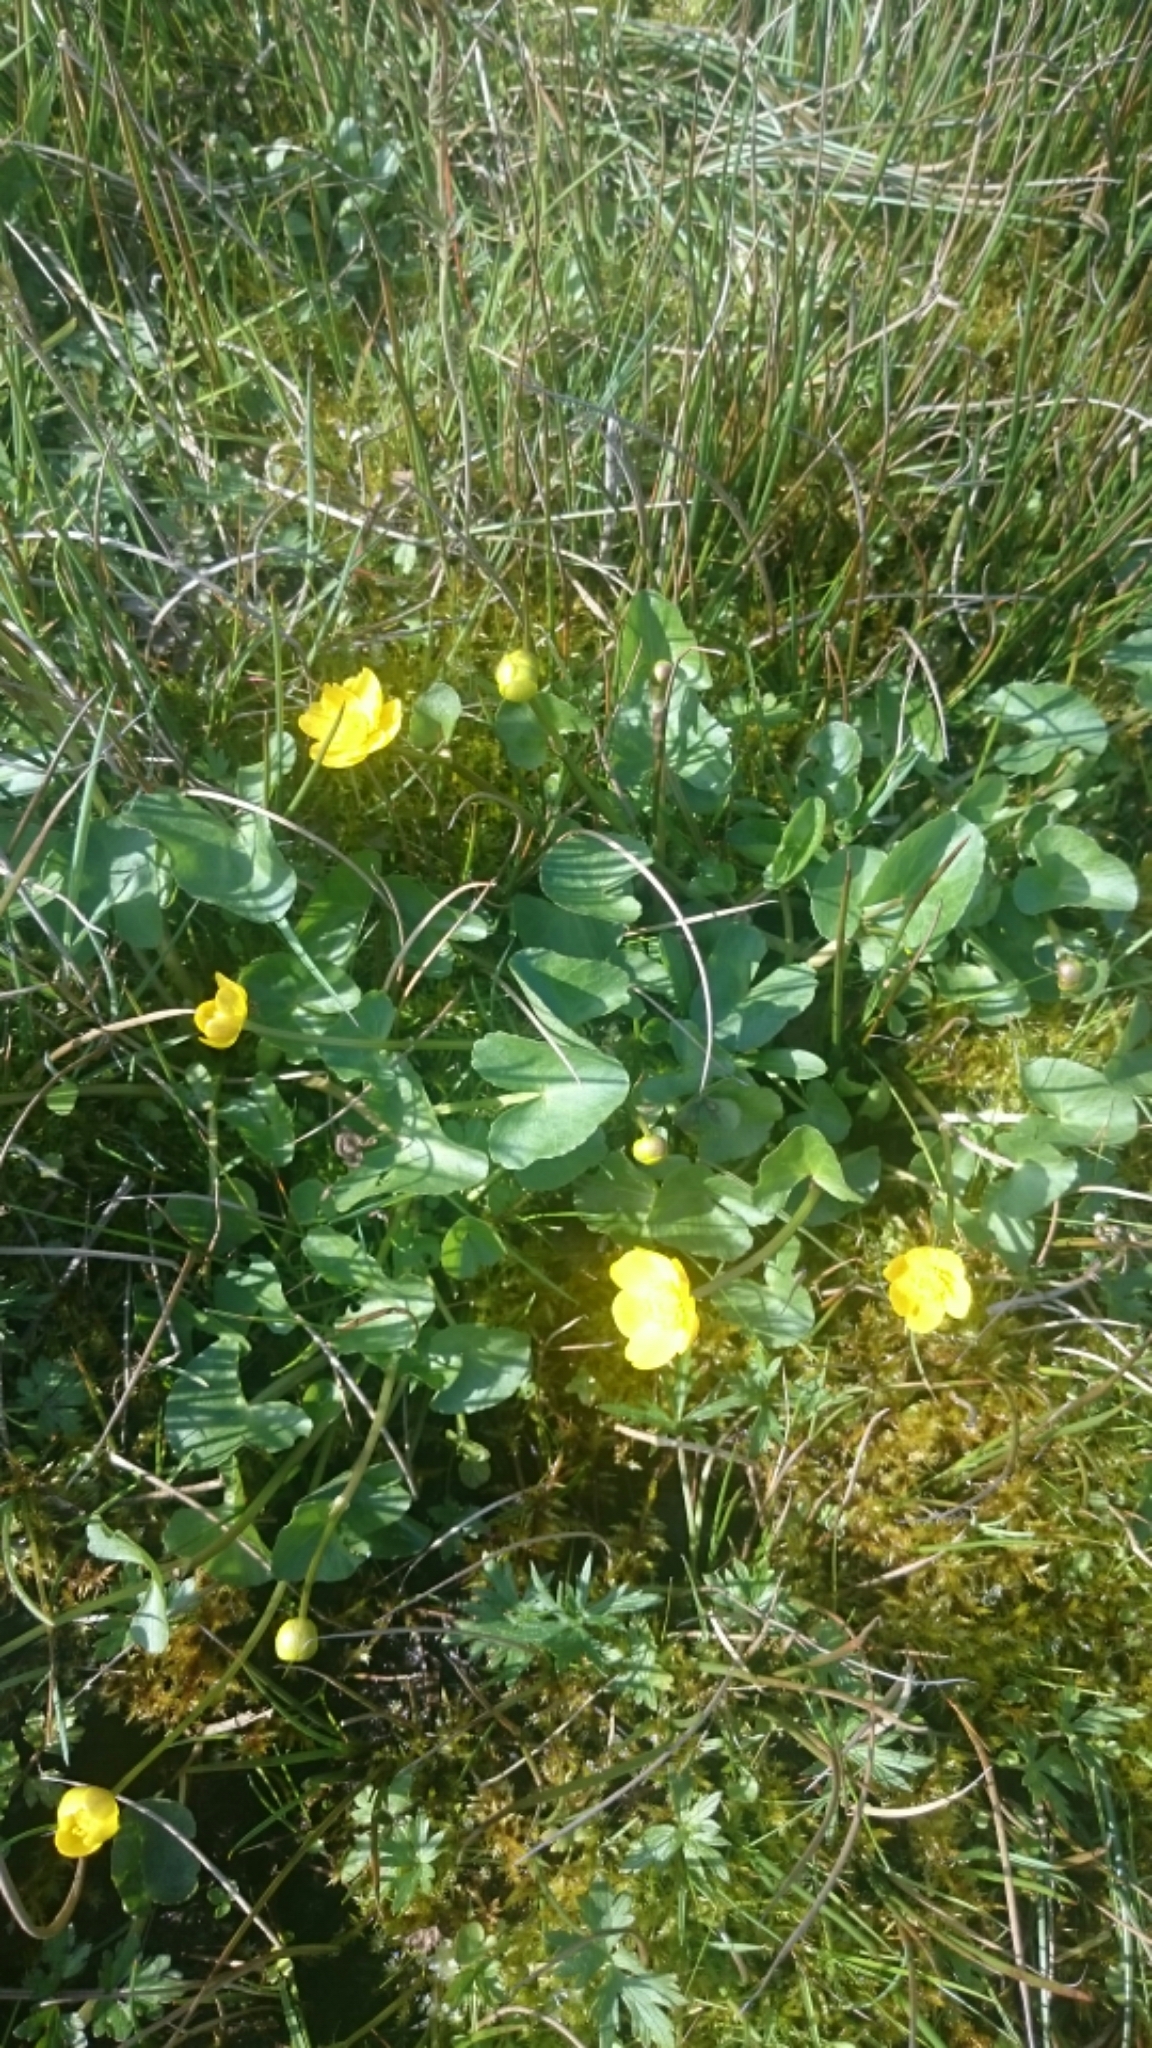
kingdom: Plantae
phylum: Tracheophyta
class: Magnoliopsida
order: Ranunculales
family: Ranunculaceae
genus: Caltha
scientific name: Caltha palustris
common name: Marsh marigold
